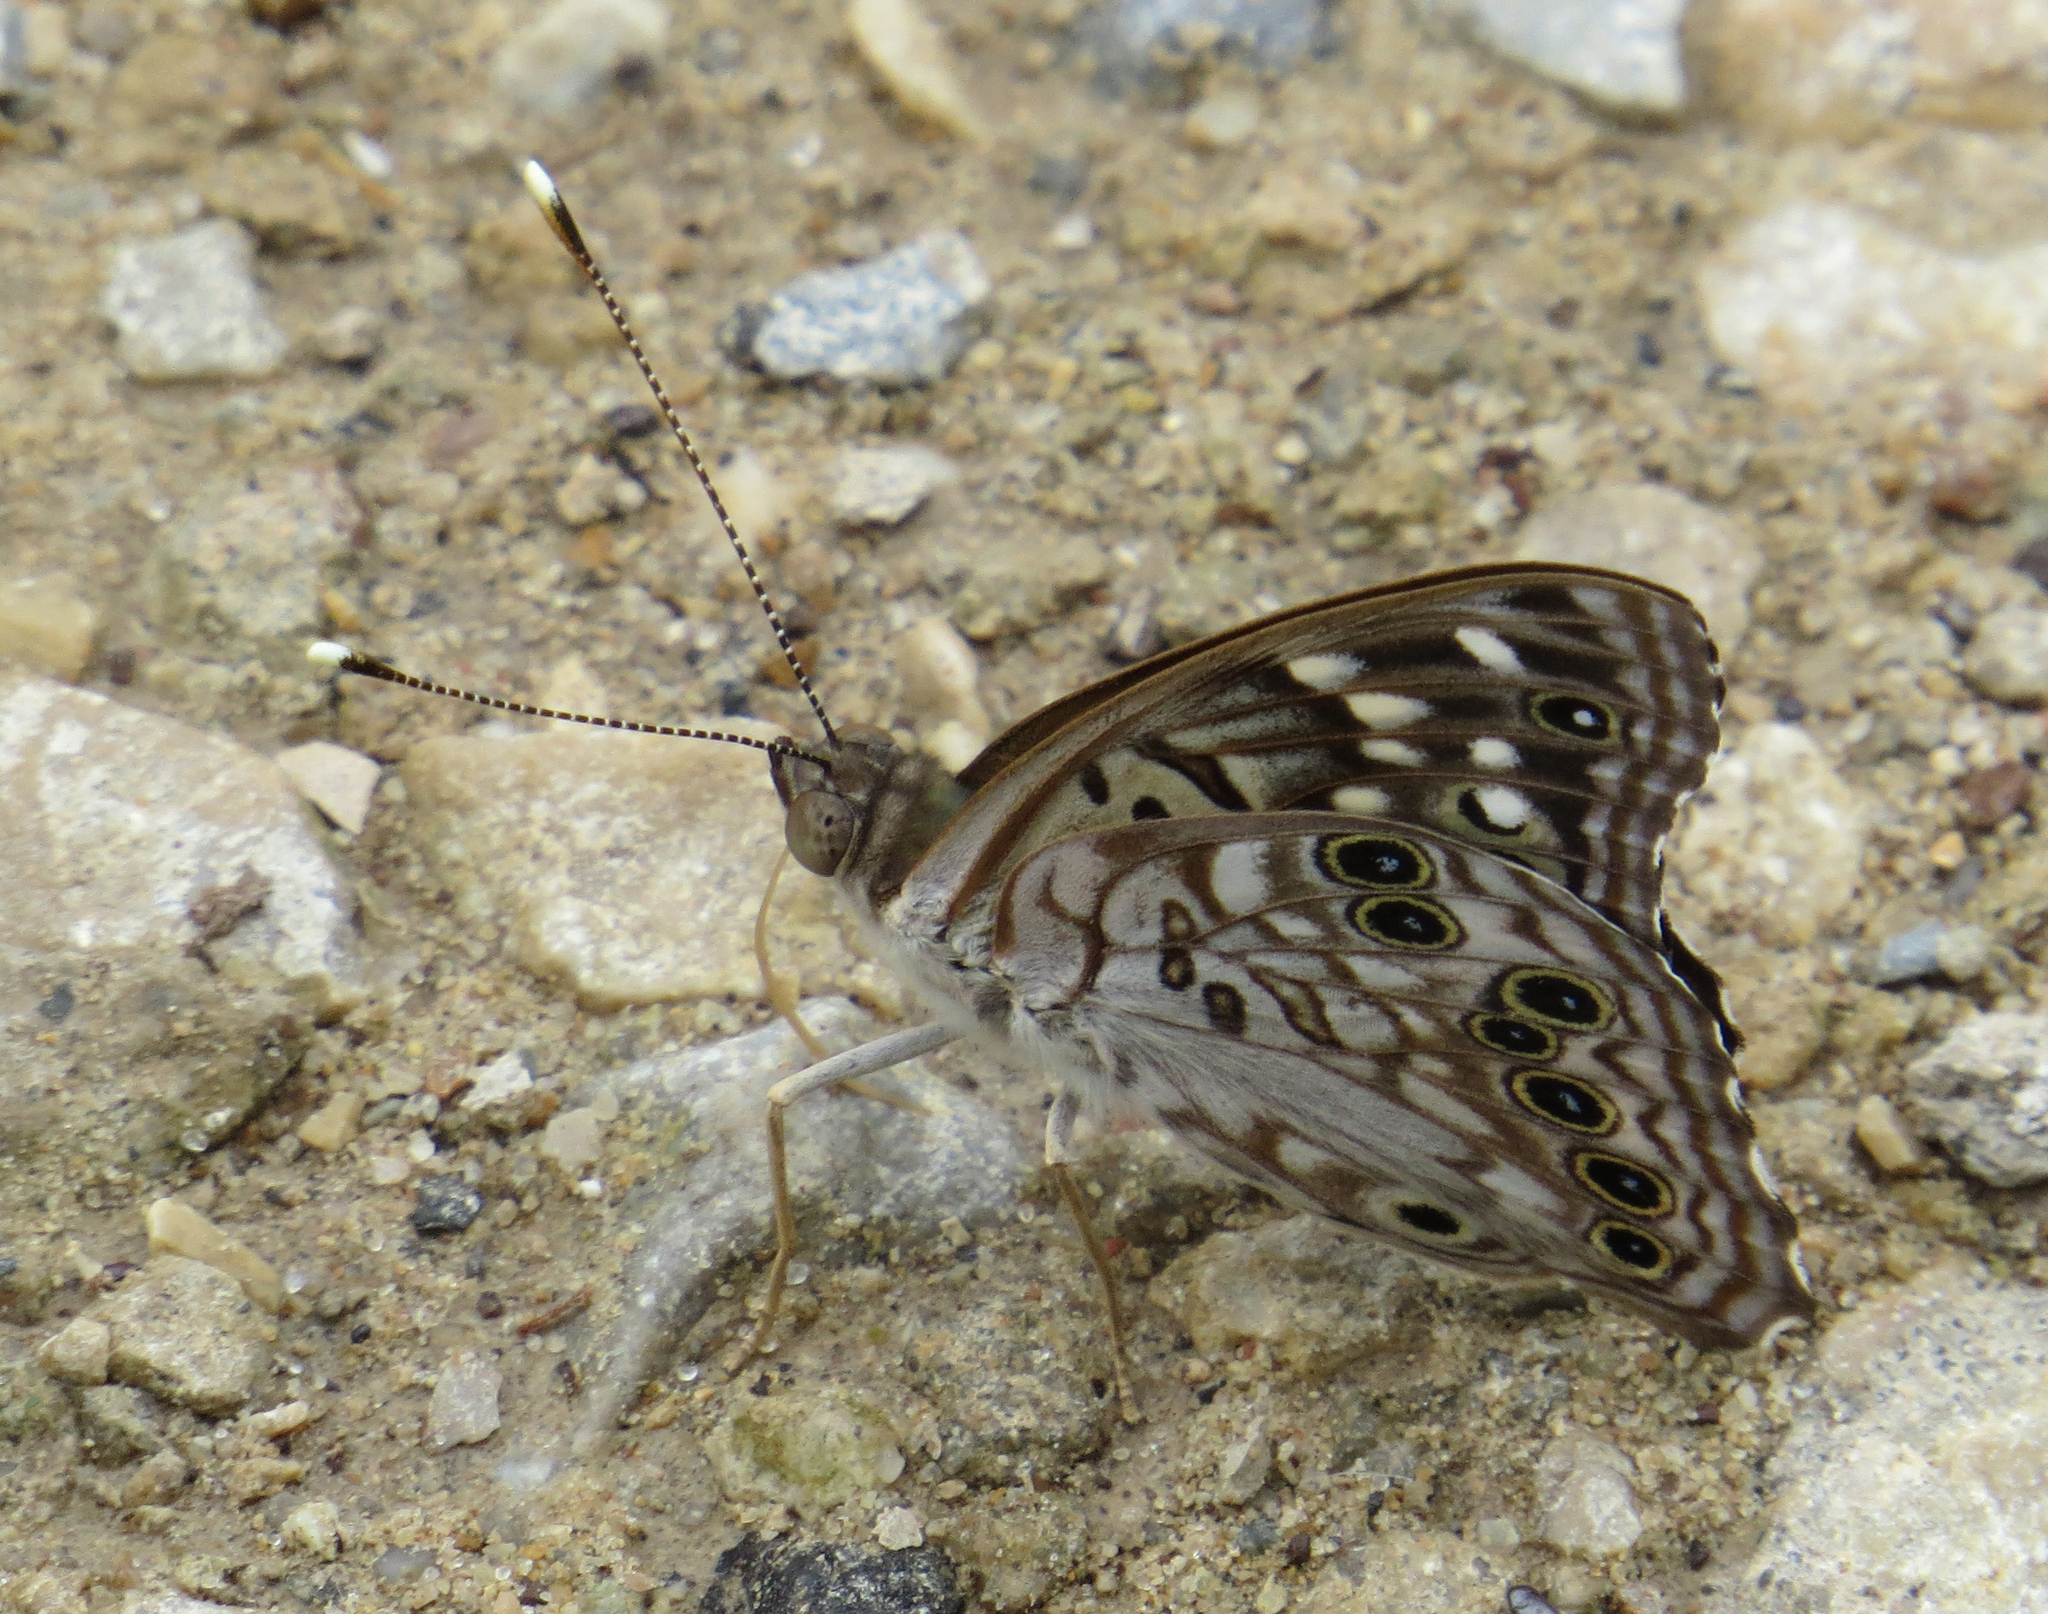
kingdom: Animalia
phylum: Arthropoda
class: Insecta
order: Lepidoptera
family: Nymphalidae
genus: Asterocampa
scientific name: Asterocampa celtis
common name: Hackberry emperor
